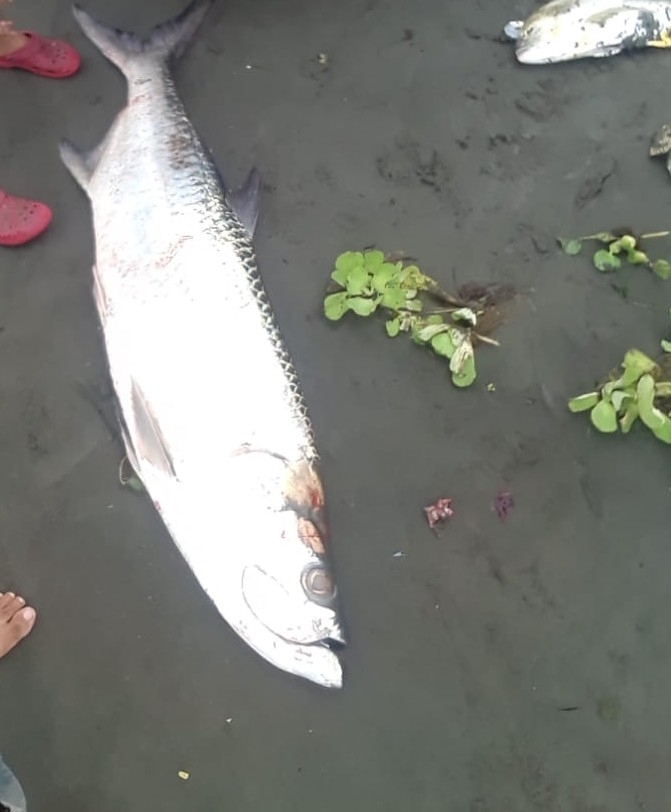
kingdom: Animalia
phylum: Chordata
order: Elopiformes
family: Megalopidae
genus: Megalops
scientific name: Megalops atlanticus
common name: Tarpon
